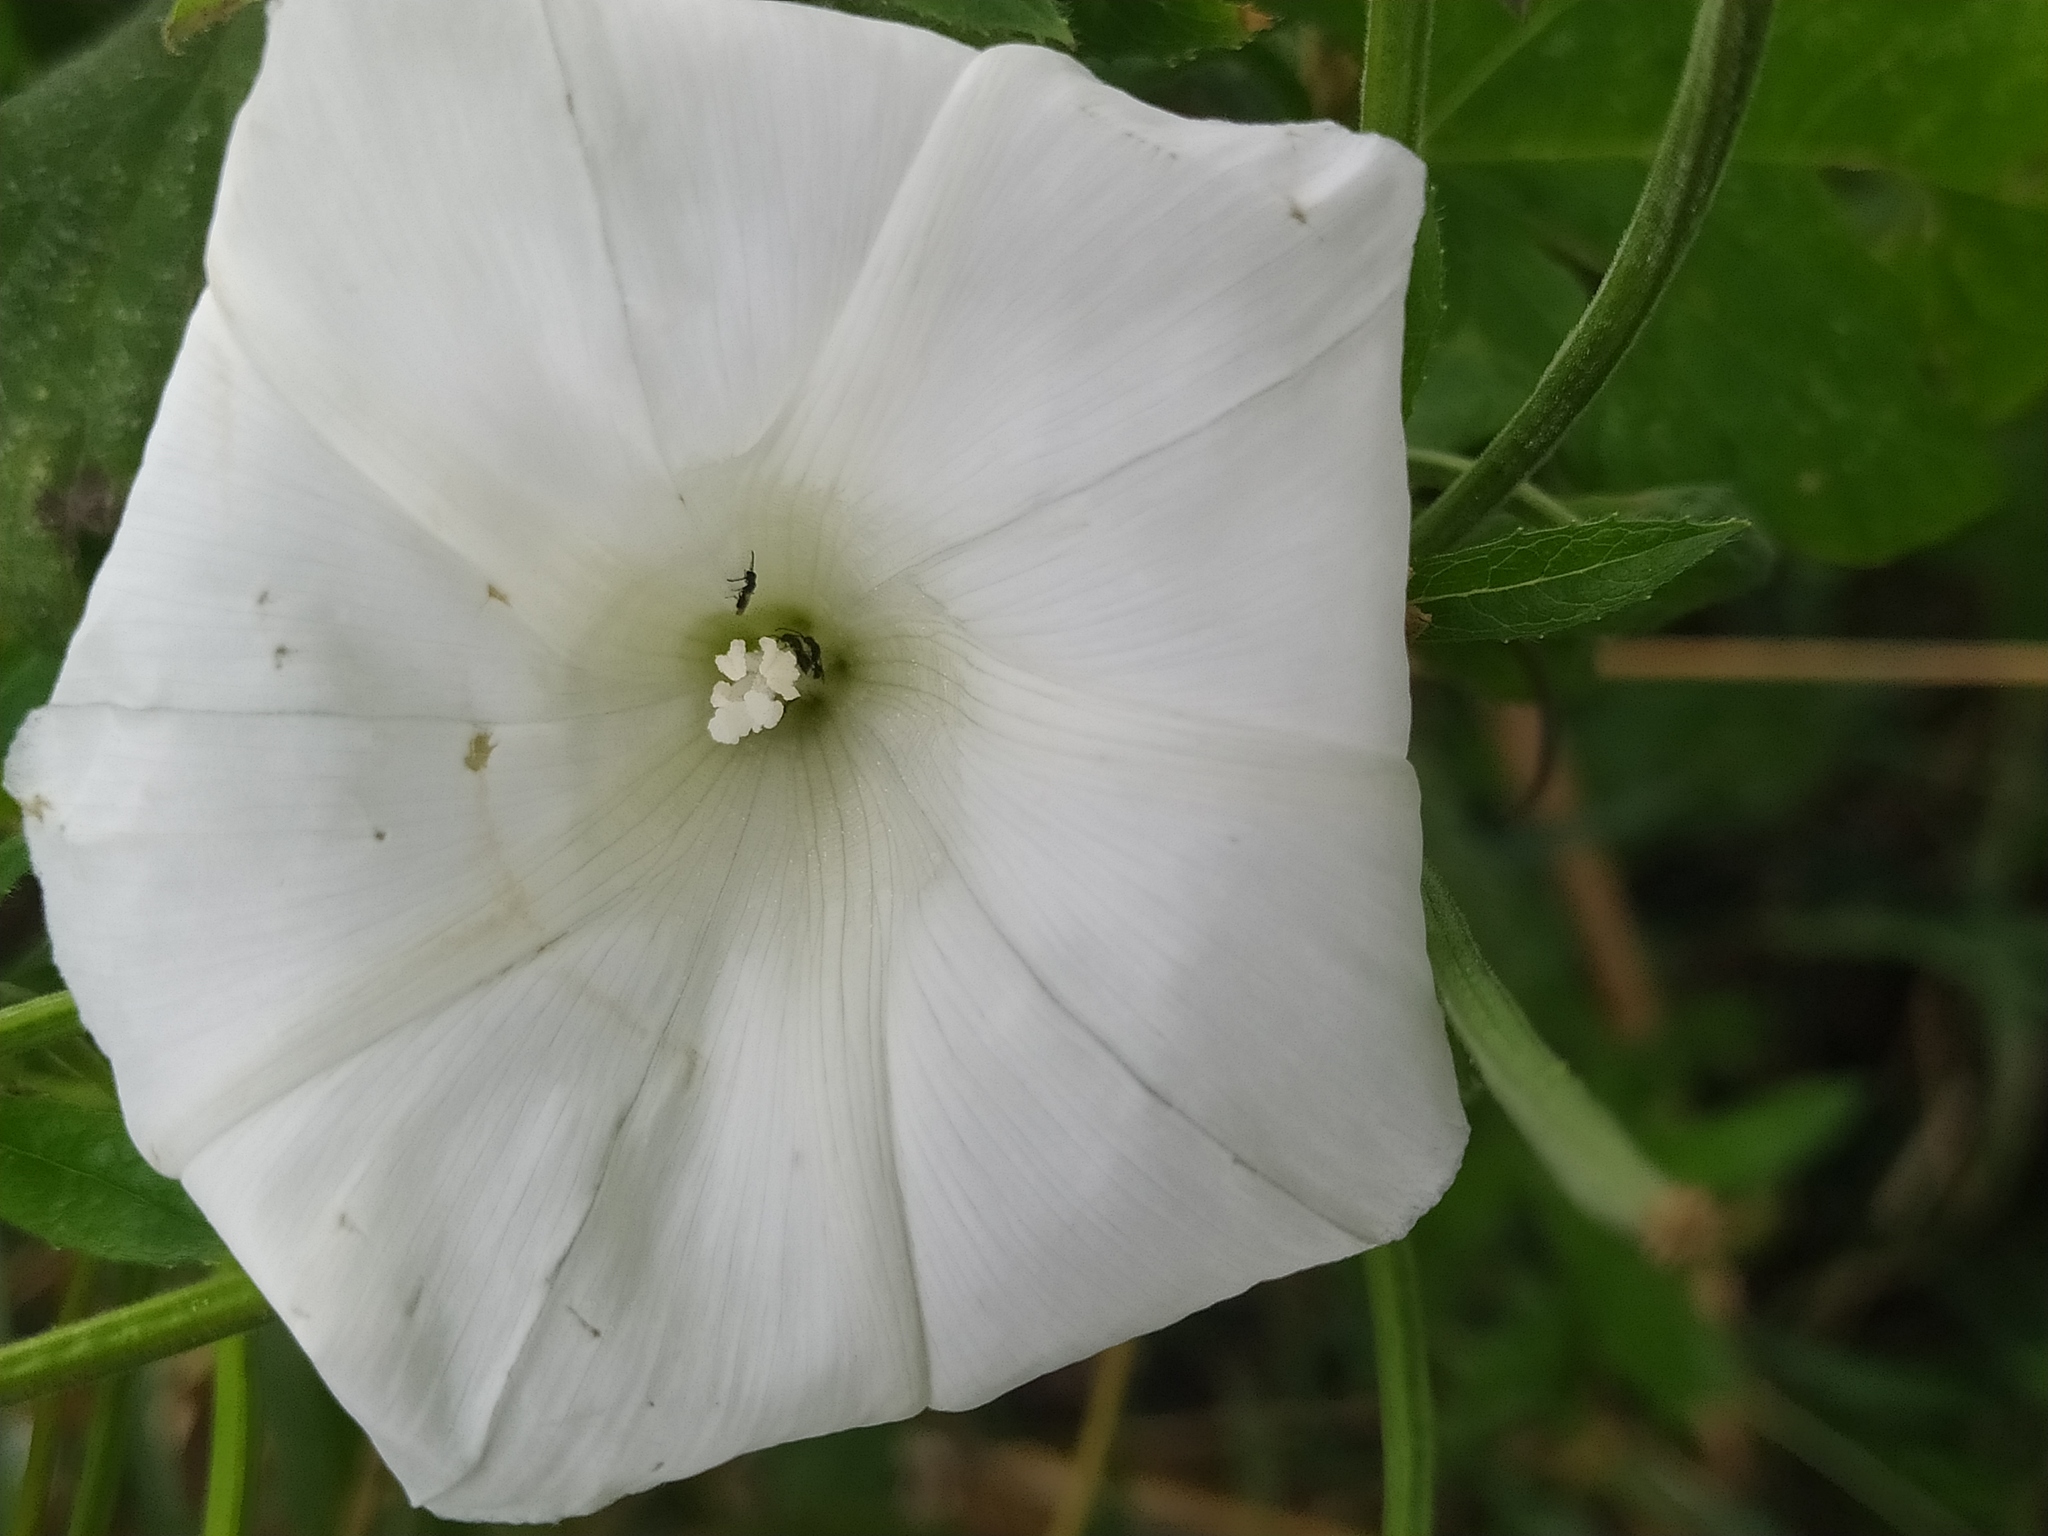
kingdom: Plantae
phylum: Tracheophyta
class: Magnoliopsida
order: Solanales
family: Convolvulaceae
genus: Calystegia
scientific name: Calystegia
